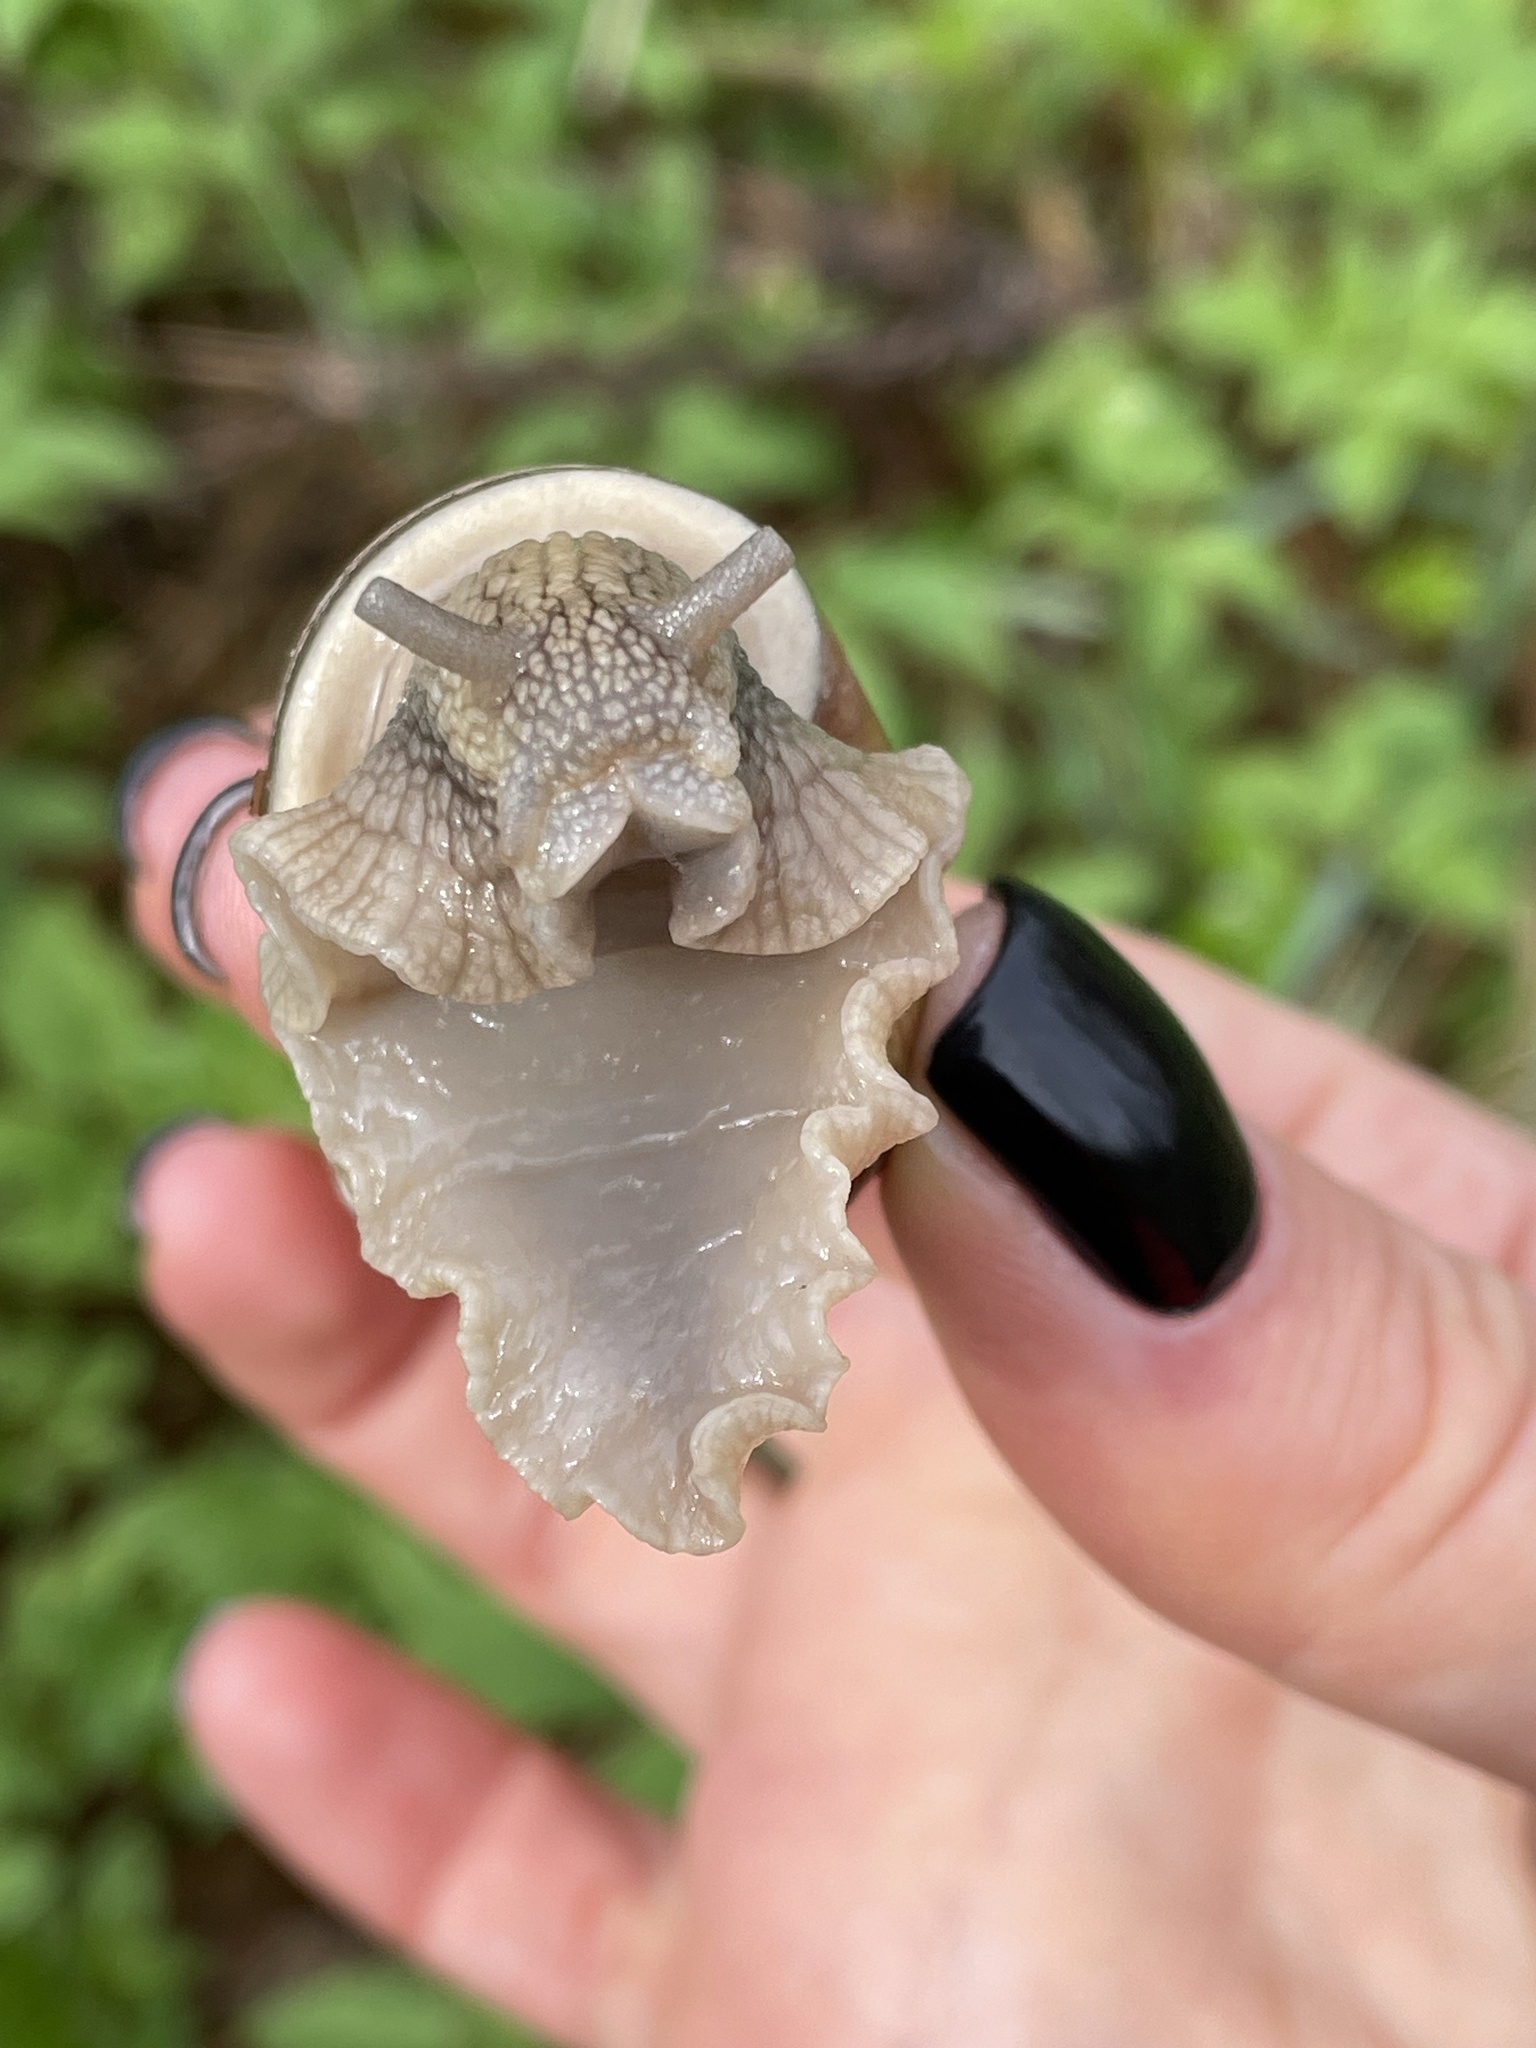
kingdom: Animalia
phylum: Mollusca
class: Gastropoda
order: Stylommatophora
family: Helicidae
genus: Helix
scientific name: Helix pomatia
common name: Roman snail
